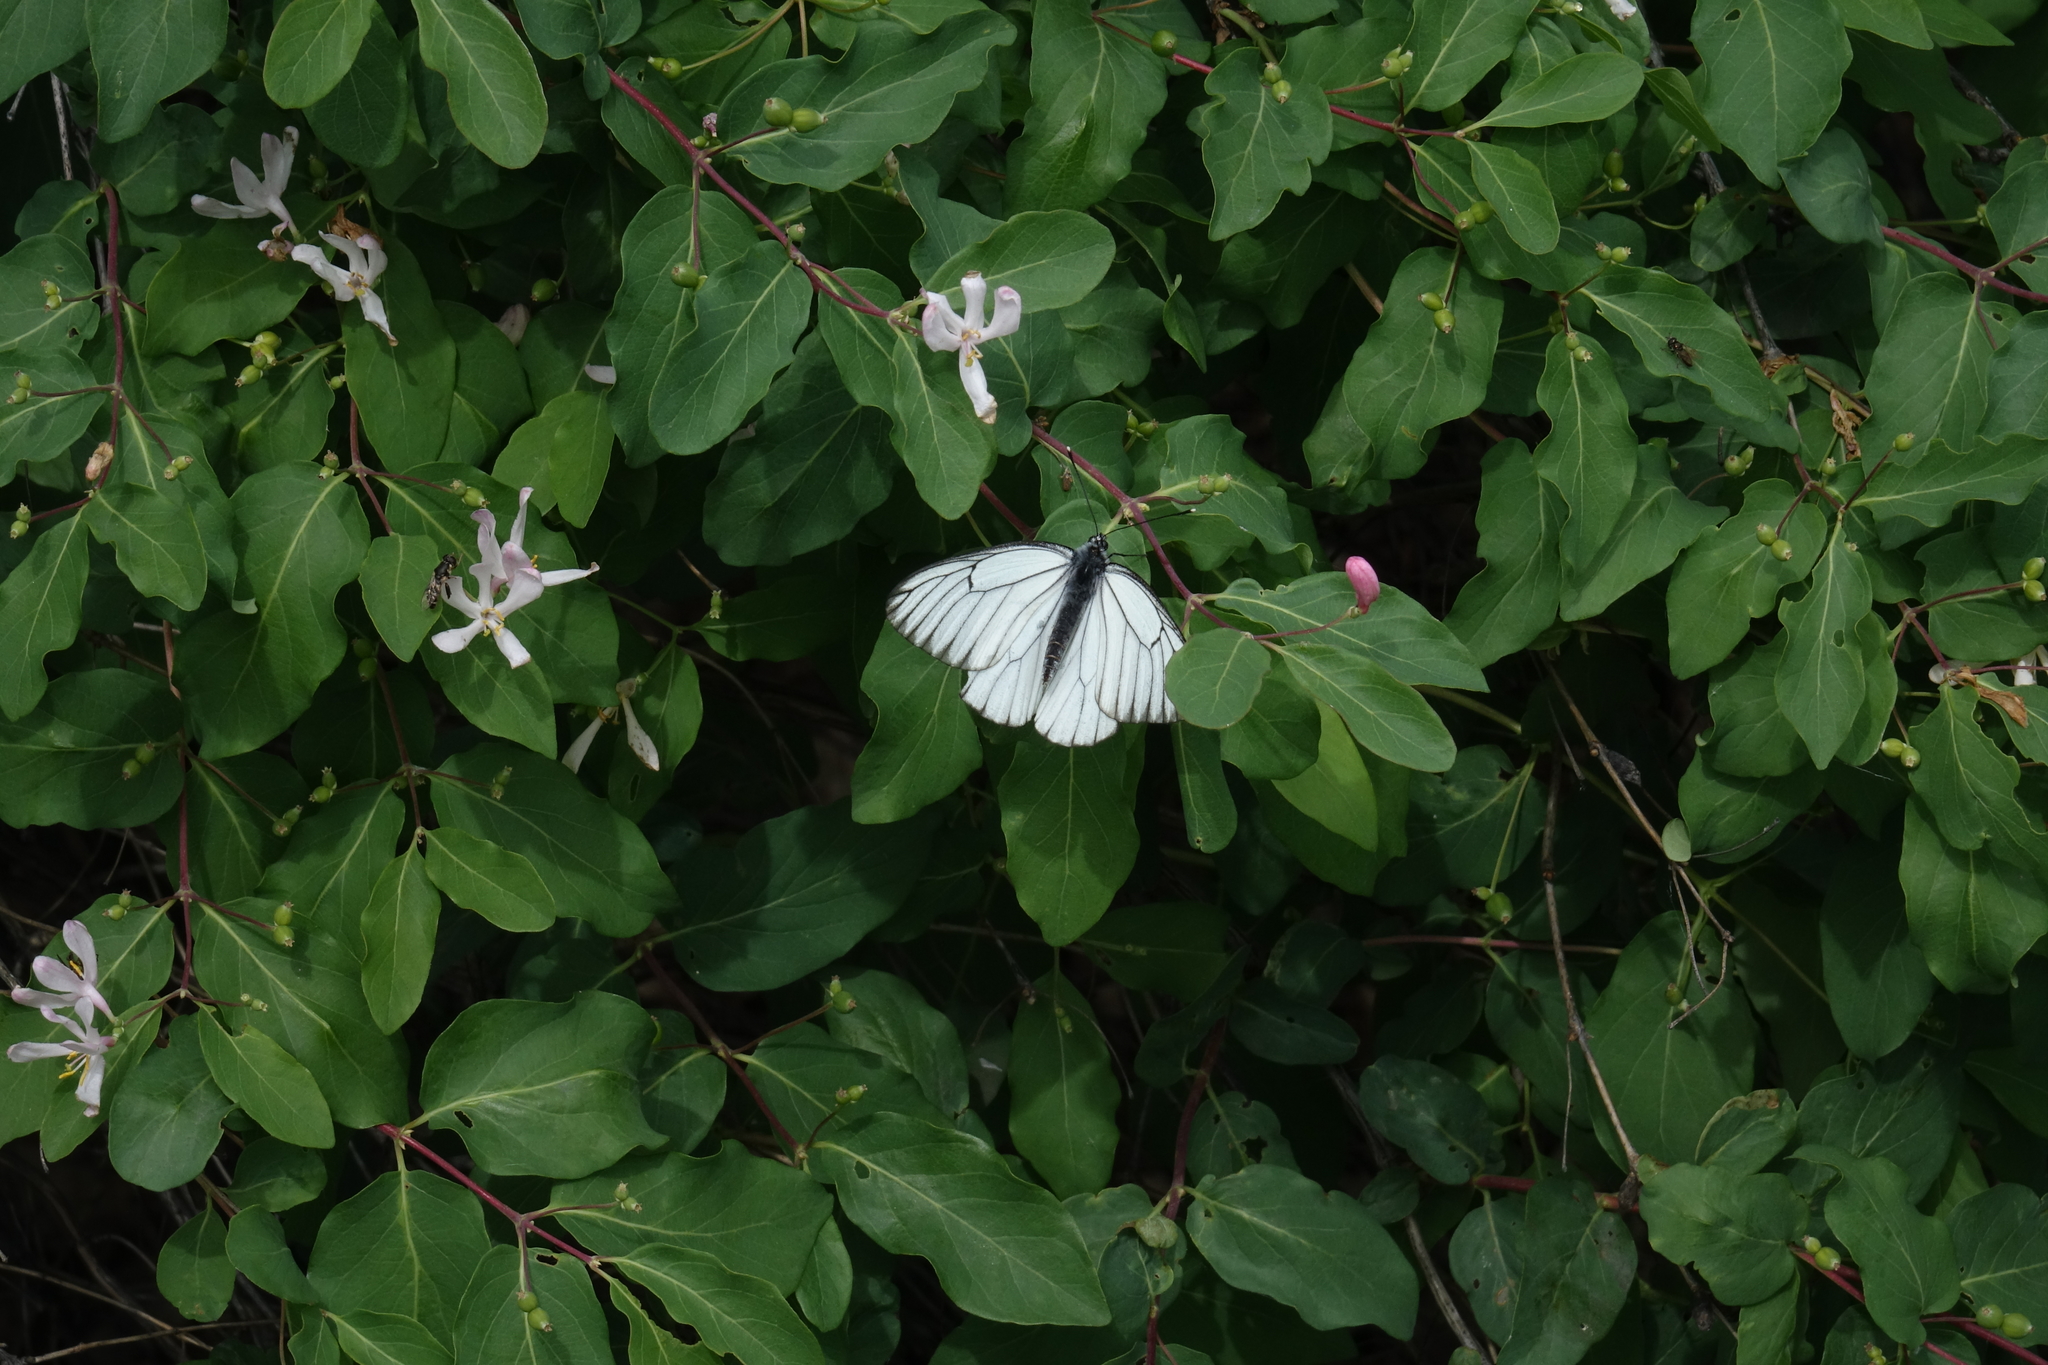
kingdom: Animalia
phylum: Arthropoda
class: Insecta
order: Lepidoptera
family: Pieridae
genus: Aporia
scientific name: Aporia crataegi
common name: Black-veined white
